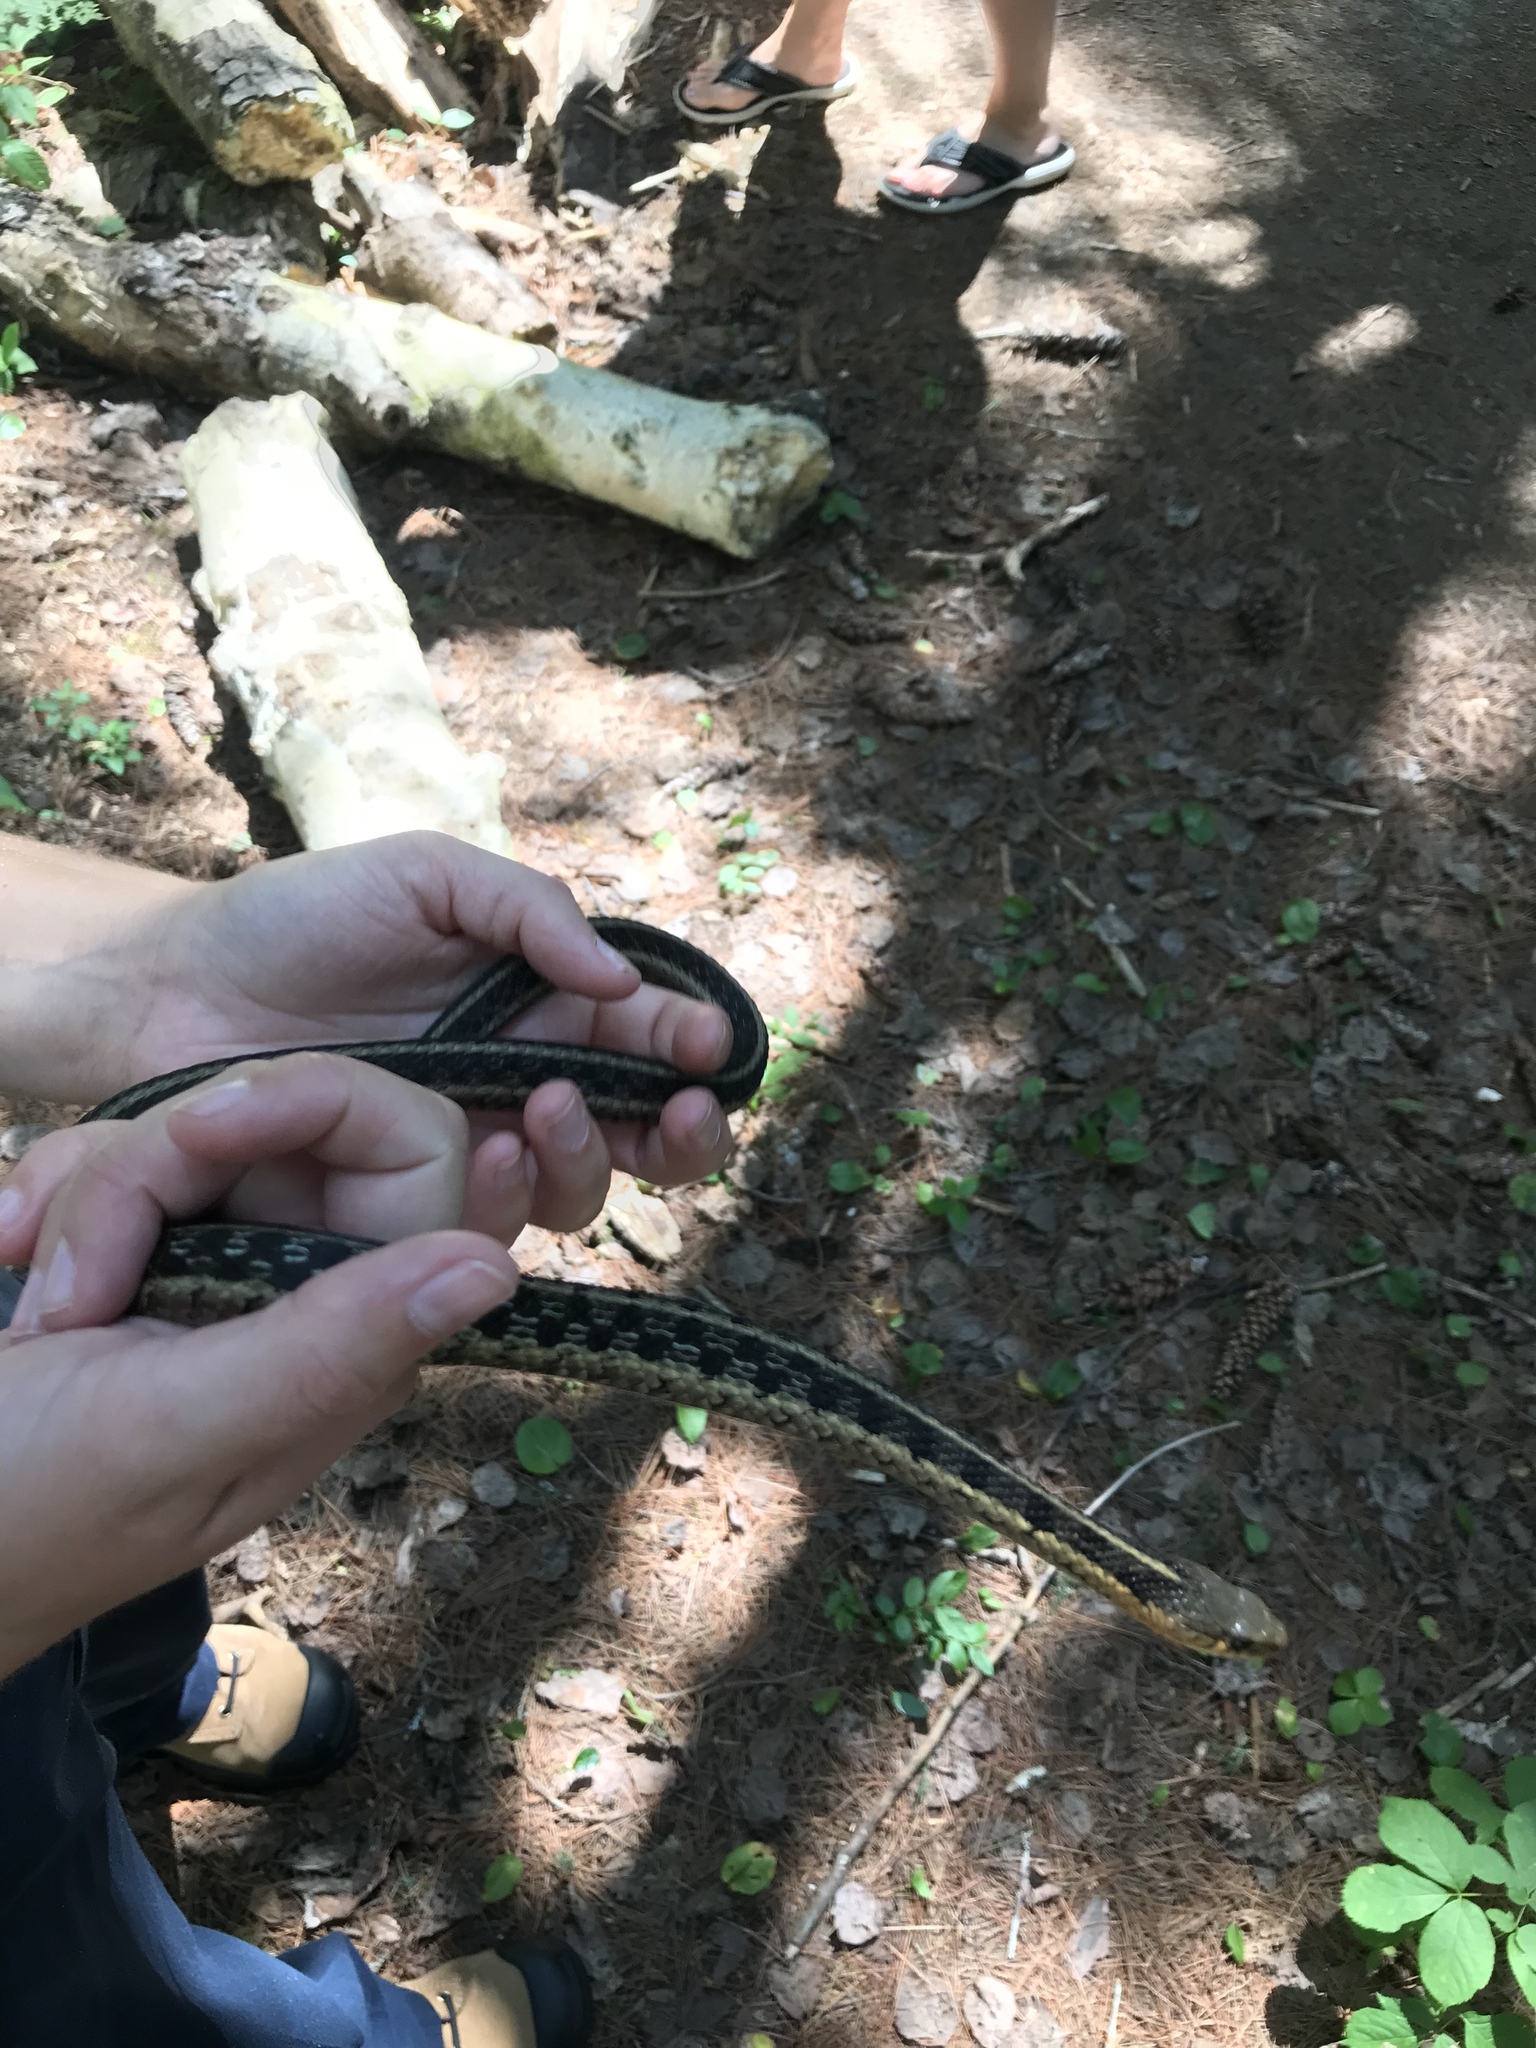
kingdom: Animalia
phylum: Chordata
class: Squamata
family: Colubridae
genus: Thamnophis
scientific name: Thamnophis sirtalis
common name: Common garter snake
